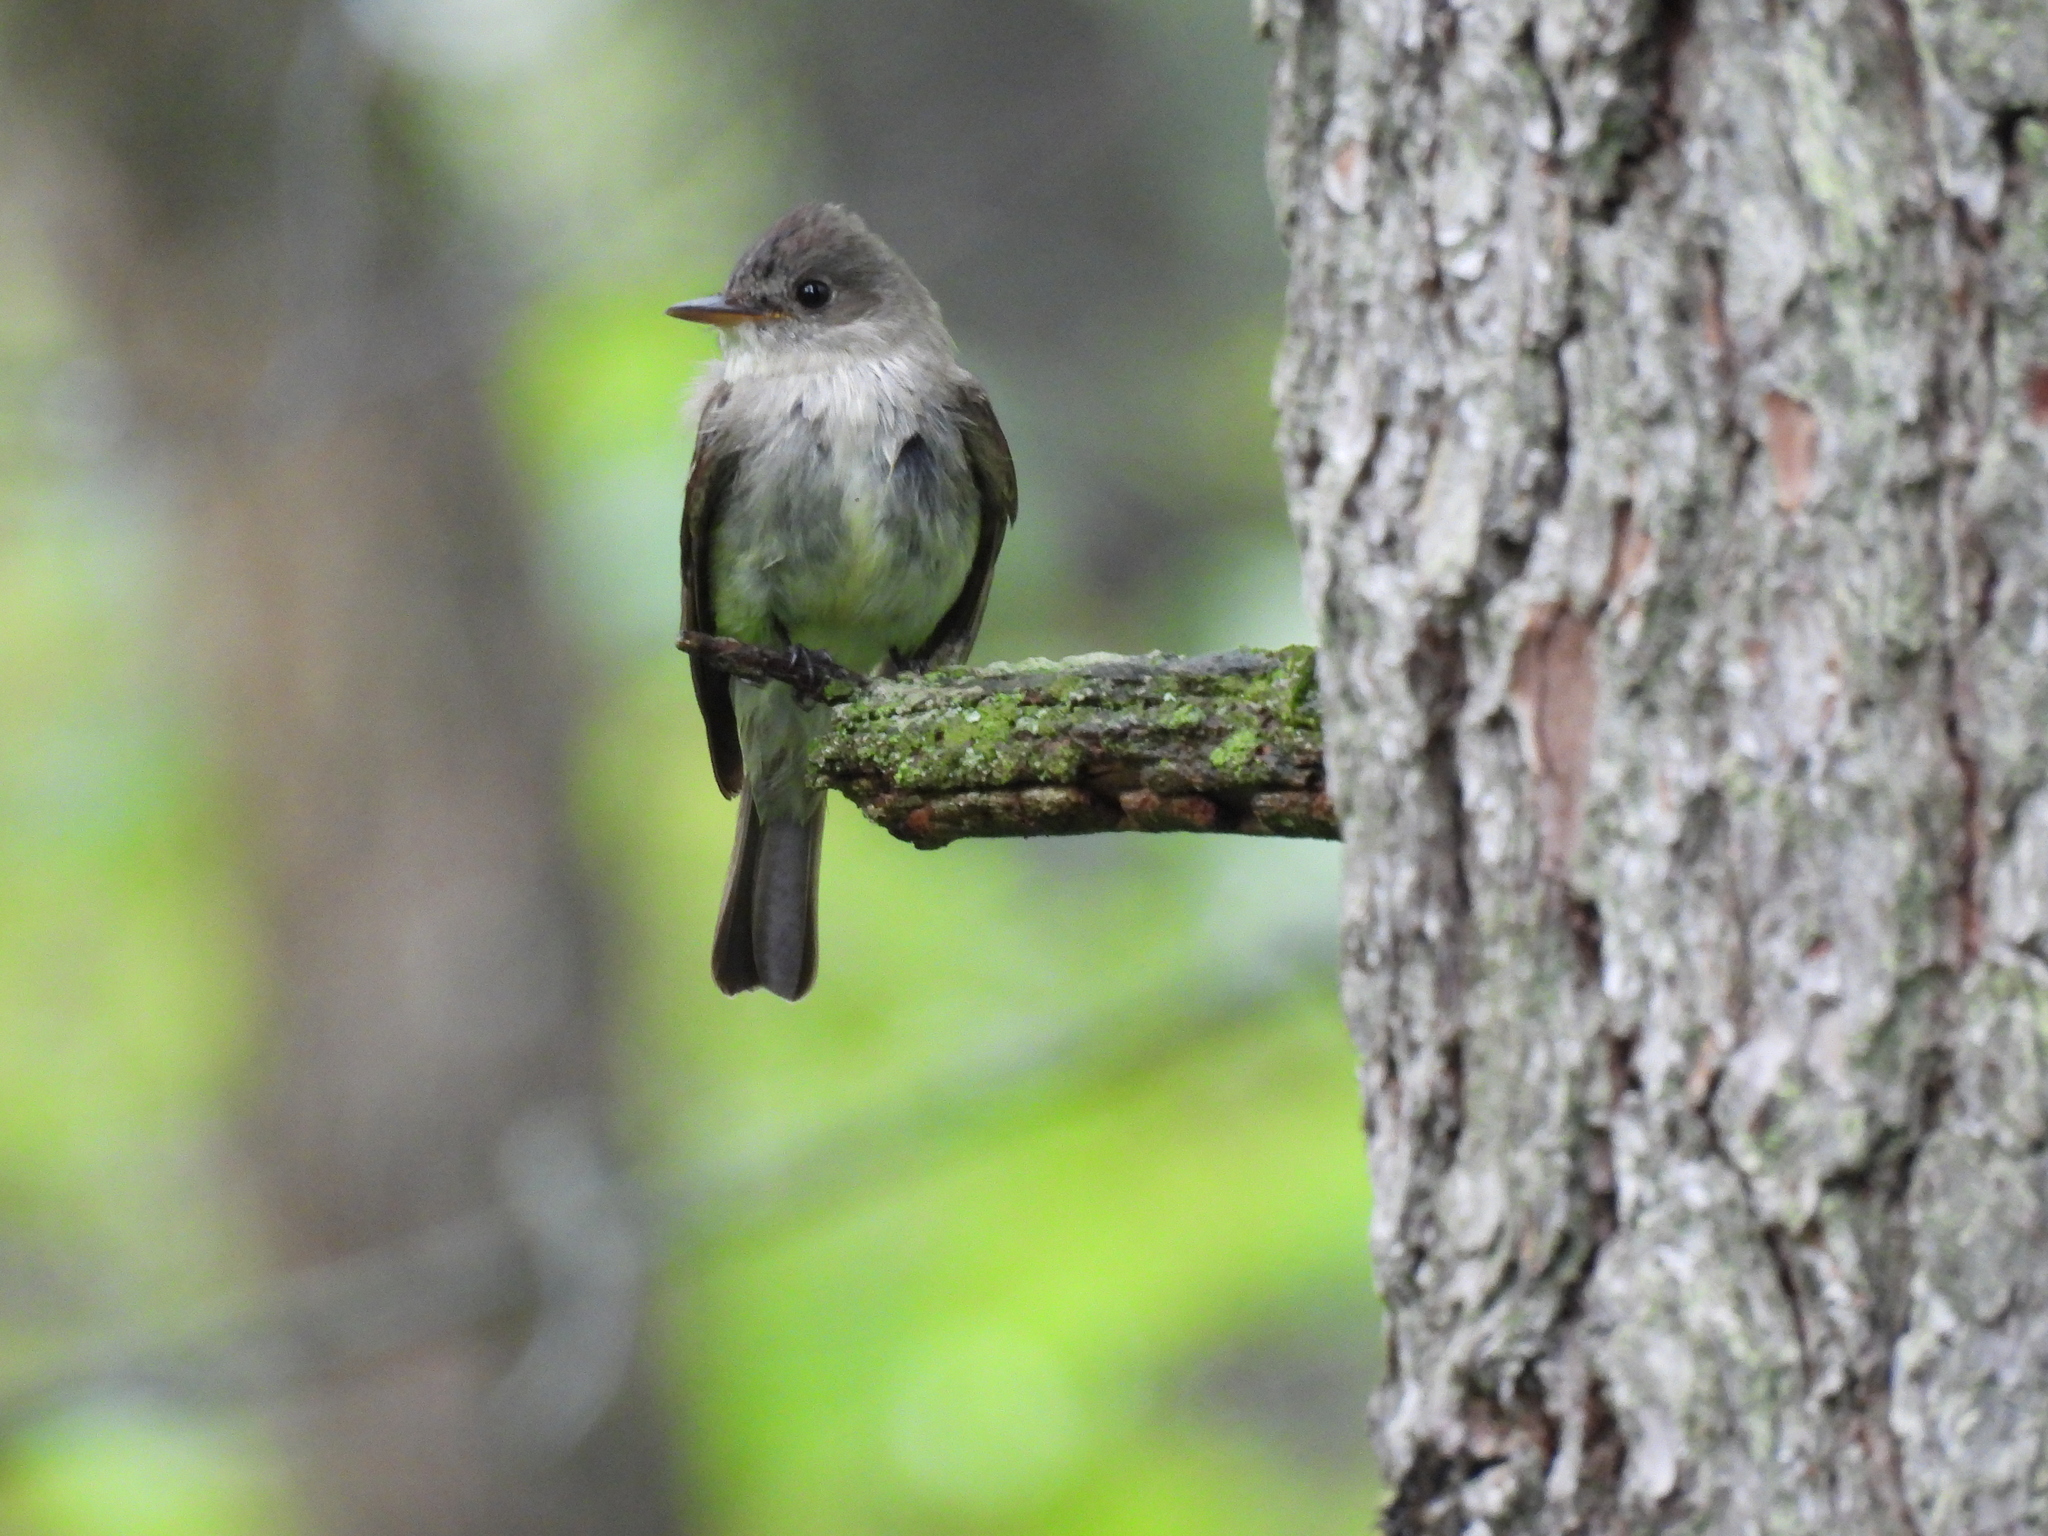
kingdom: Animalia
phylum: Chordata
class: Aves
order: Passeriformes
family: Tyrannidae
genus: Contopus
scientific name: Contopus virens
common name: Eastern wood-pewee
